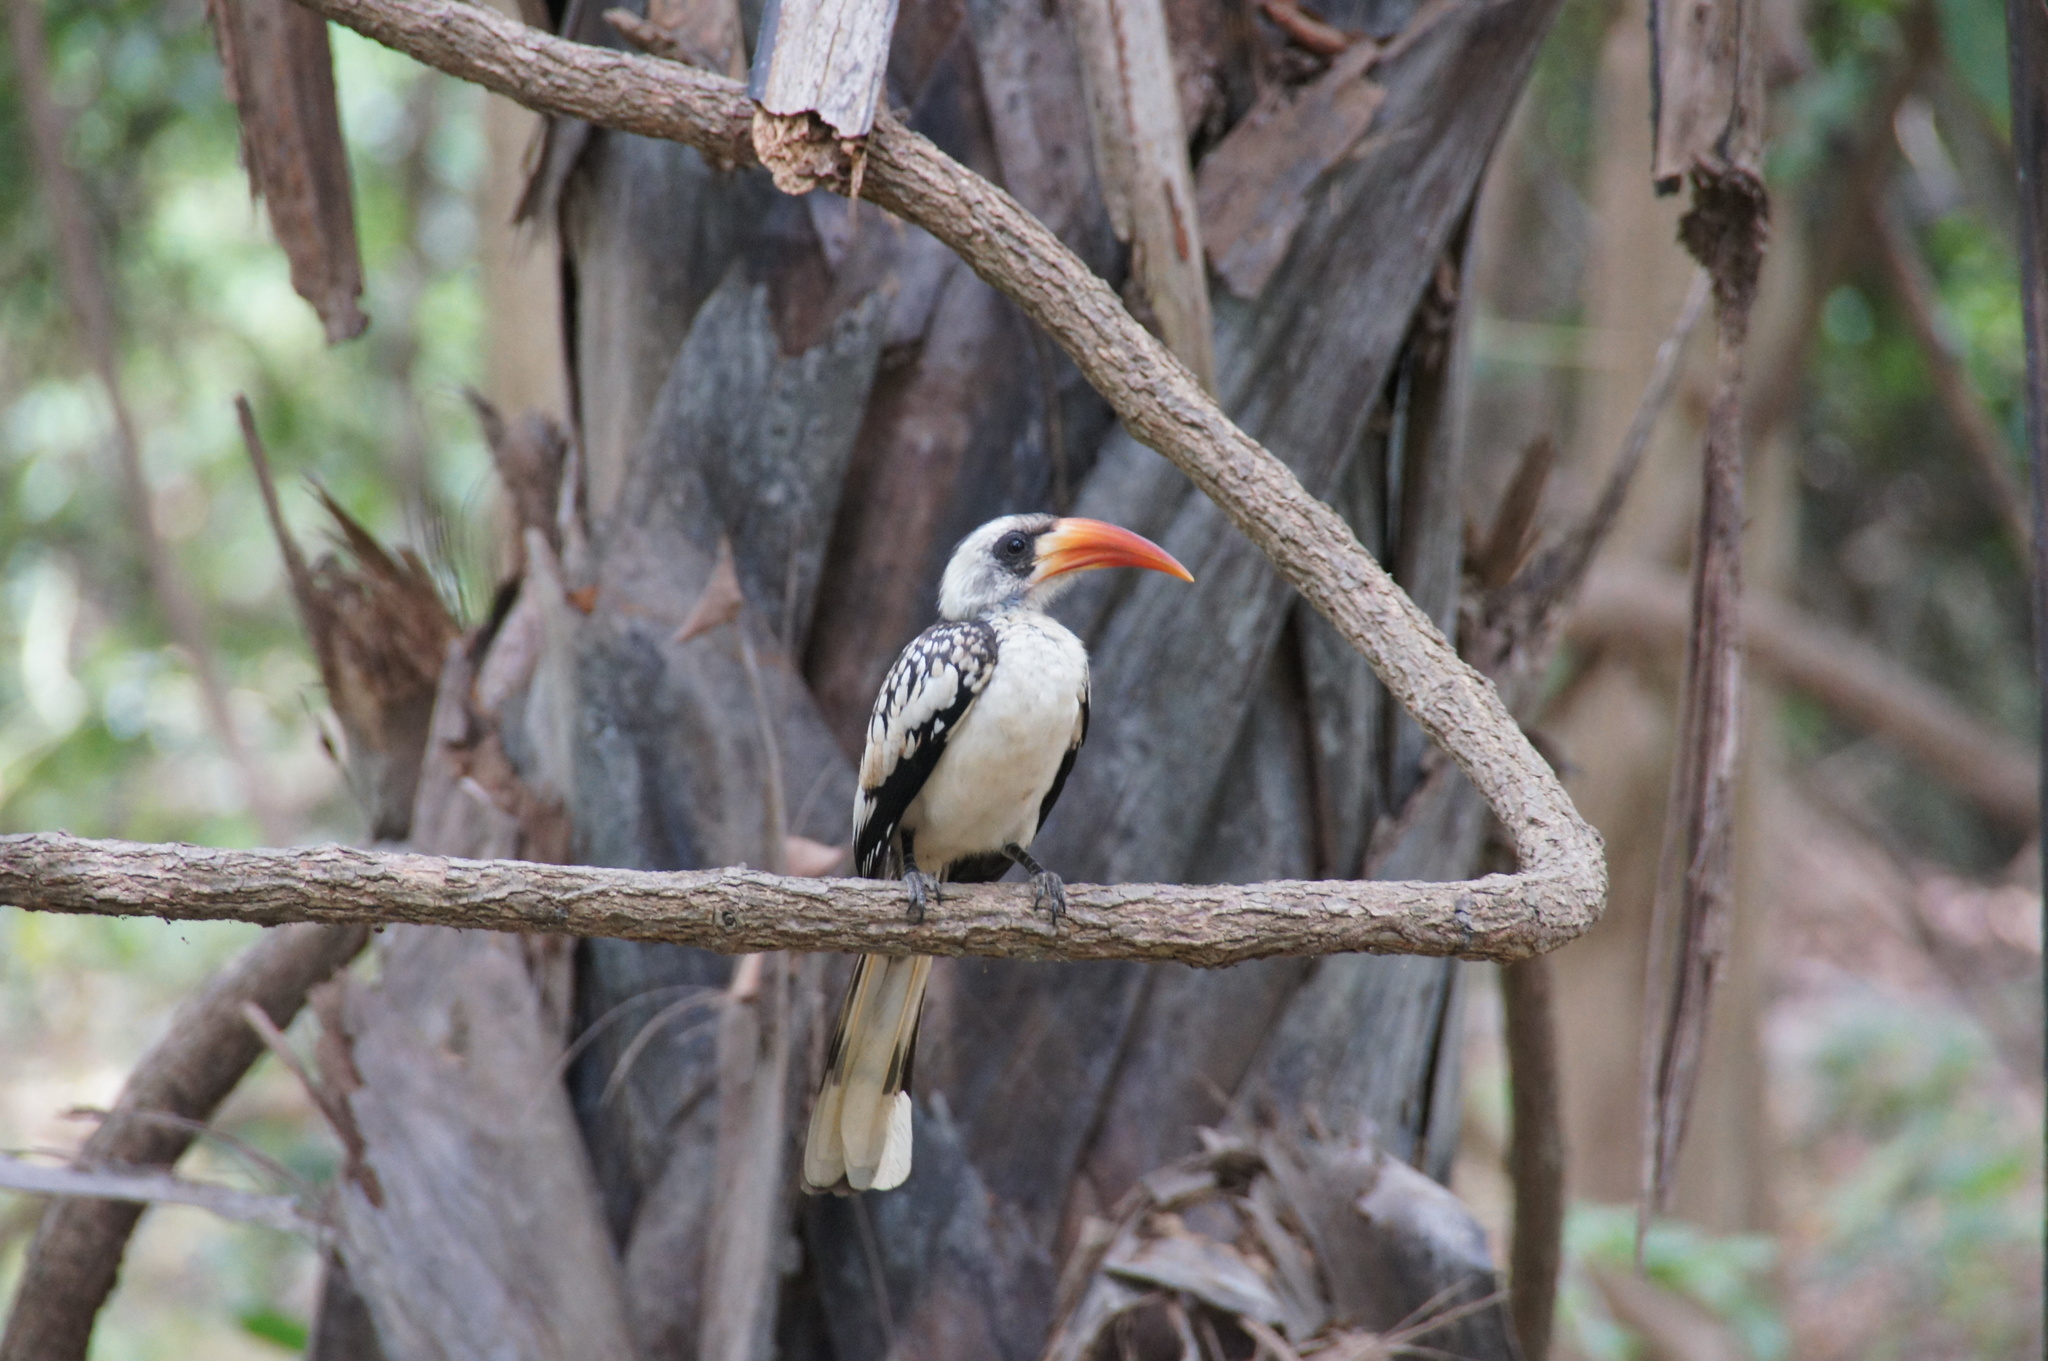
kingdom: Animalia
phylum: Chordata
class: Aves
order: Bucerotiformes
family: Bucerotidae
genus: Tockus
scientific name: Tockus kempi
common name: Western red-billed hornbill
